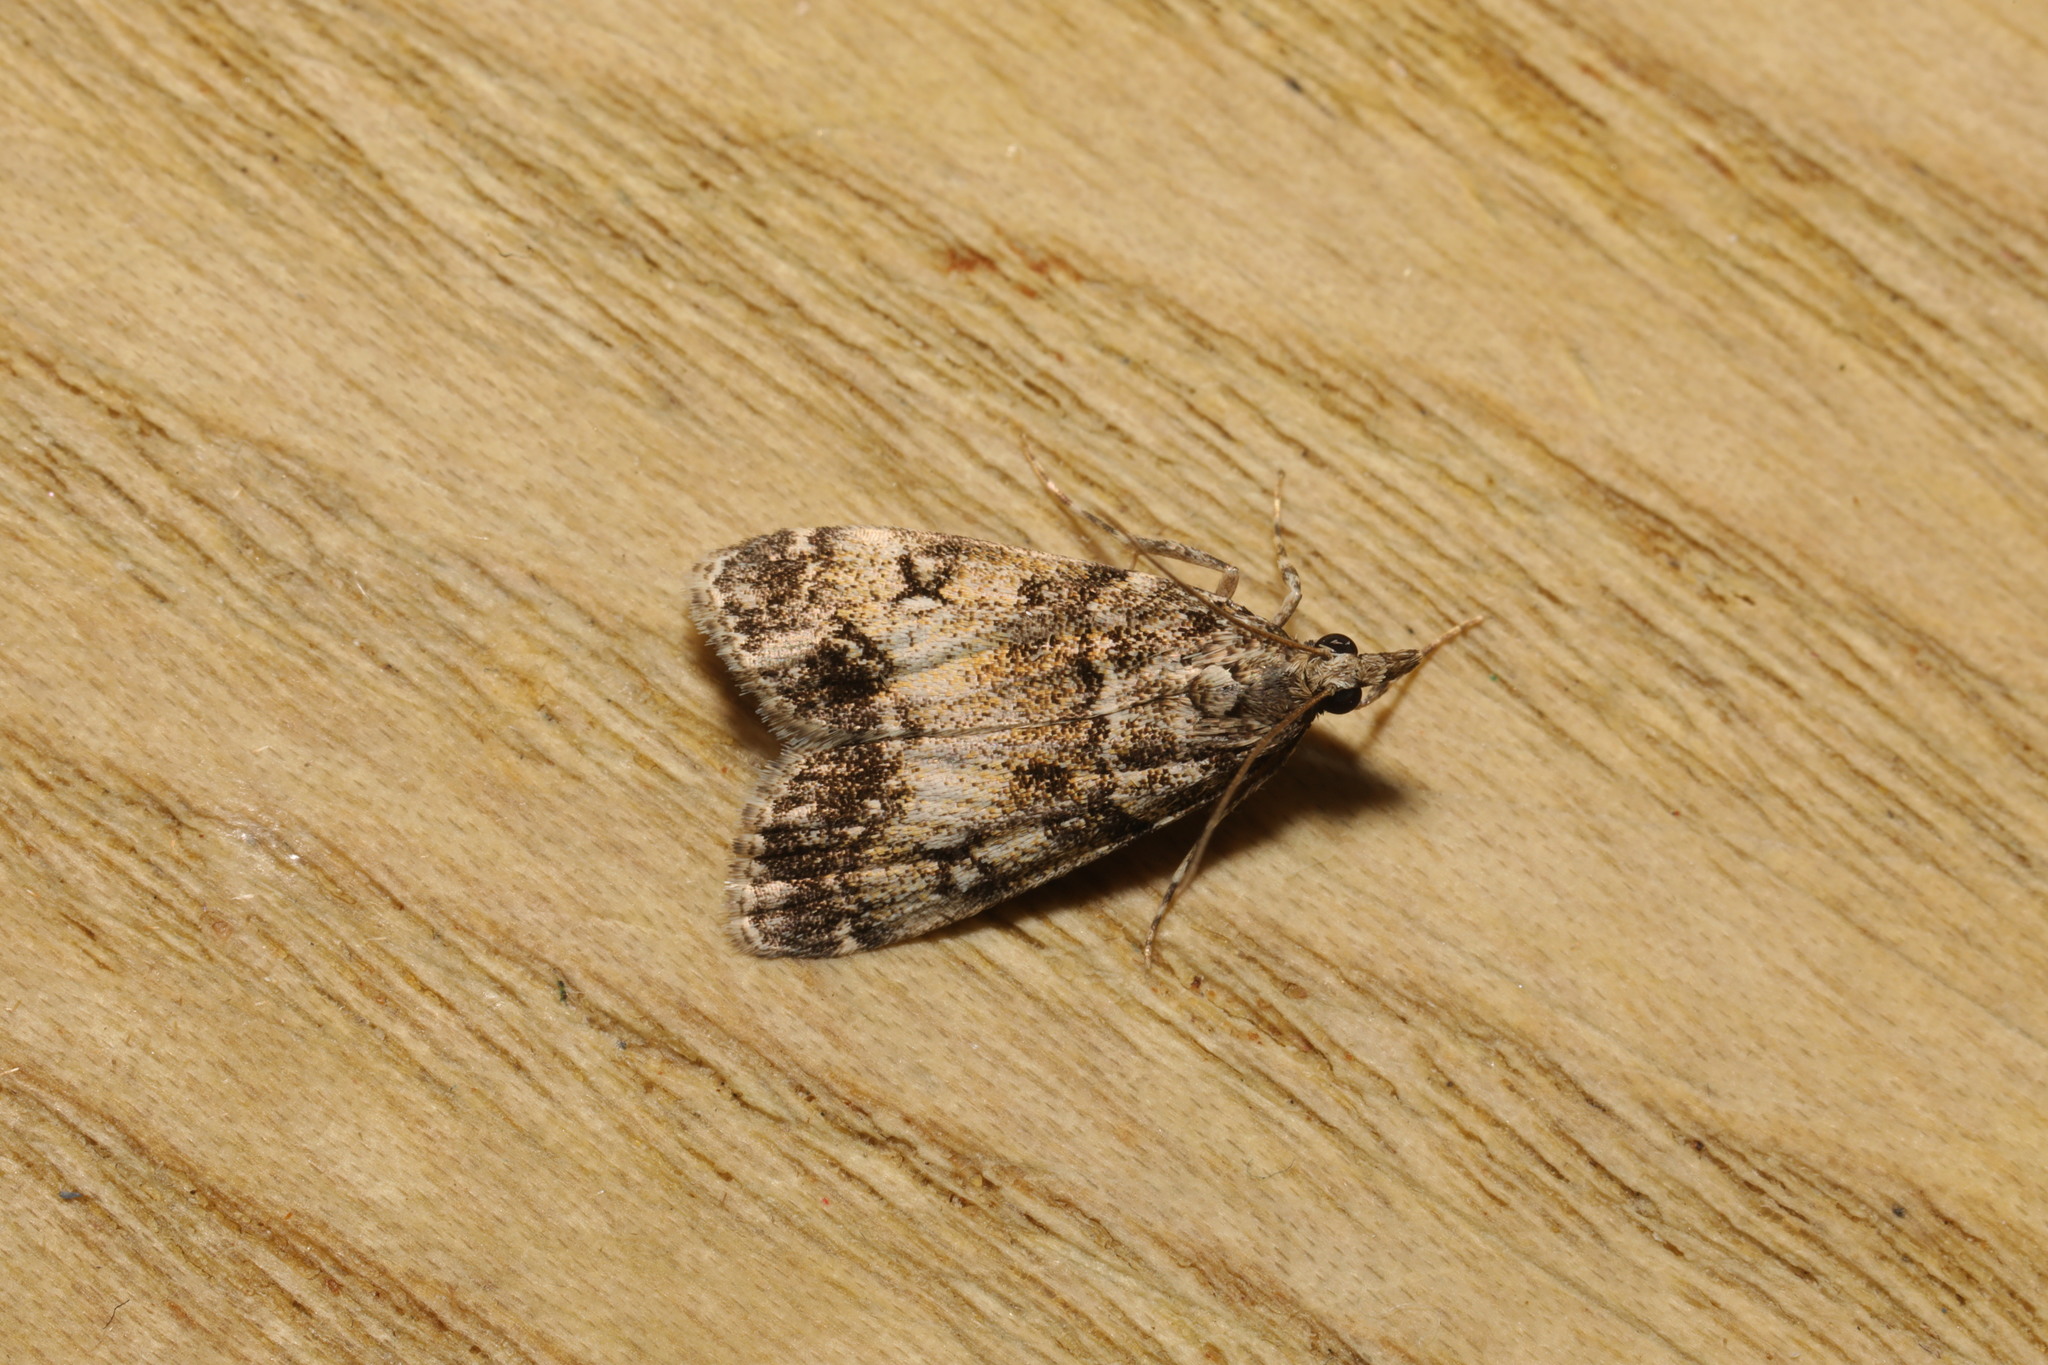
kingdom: Animalia
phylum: Arthropoda
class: Insecta
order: Lepidoptera
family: Crambidae
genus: Eudonia
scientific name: Eudonia lacustrata
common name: Little grey
